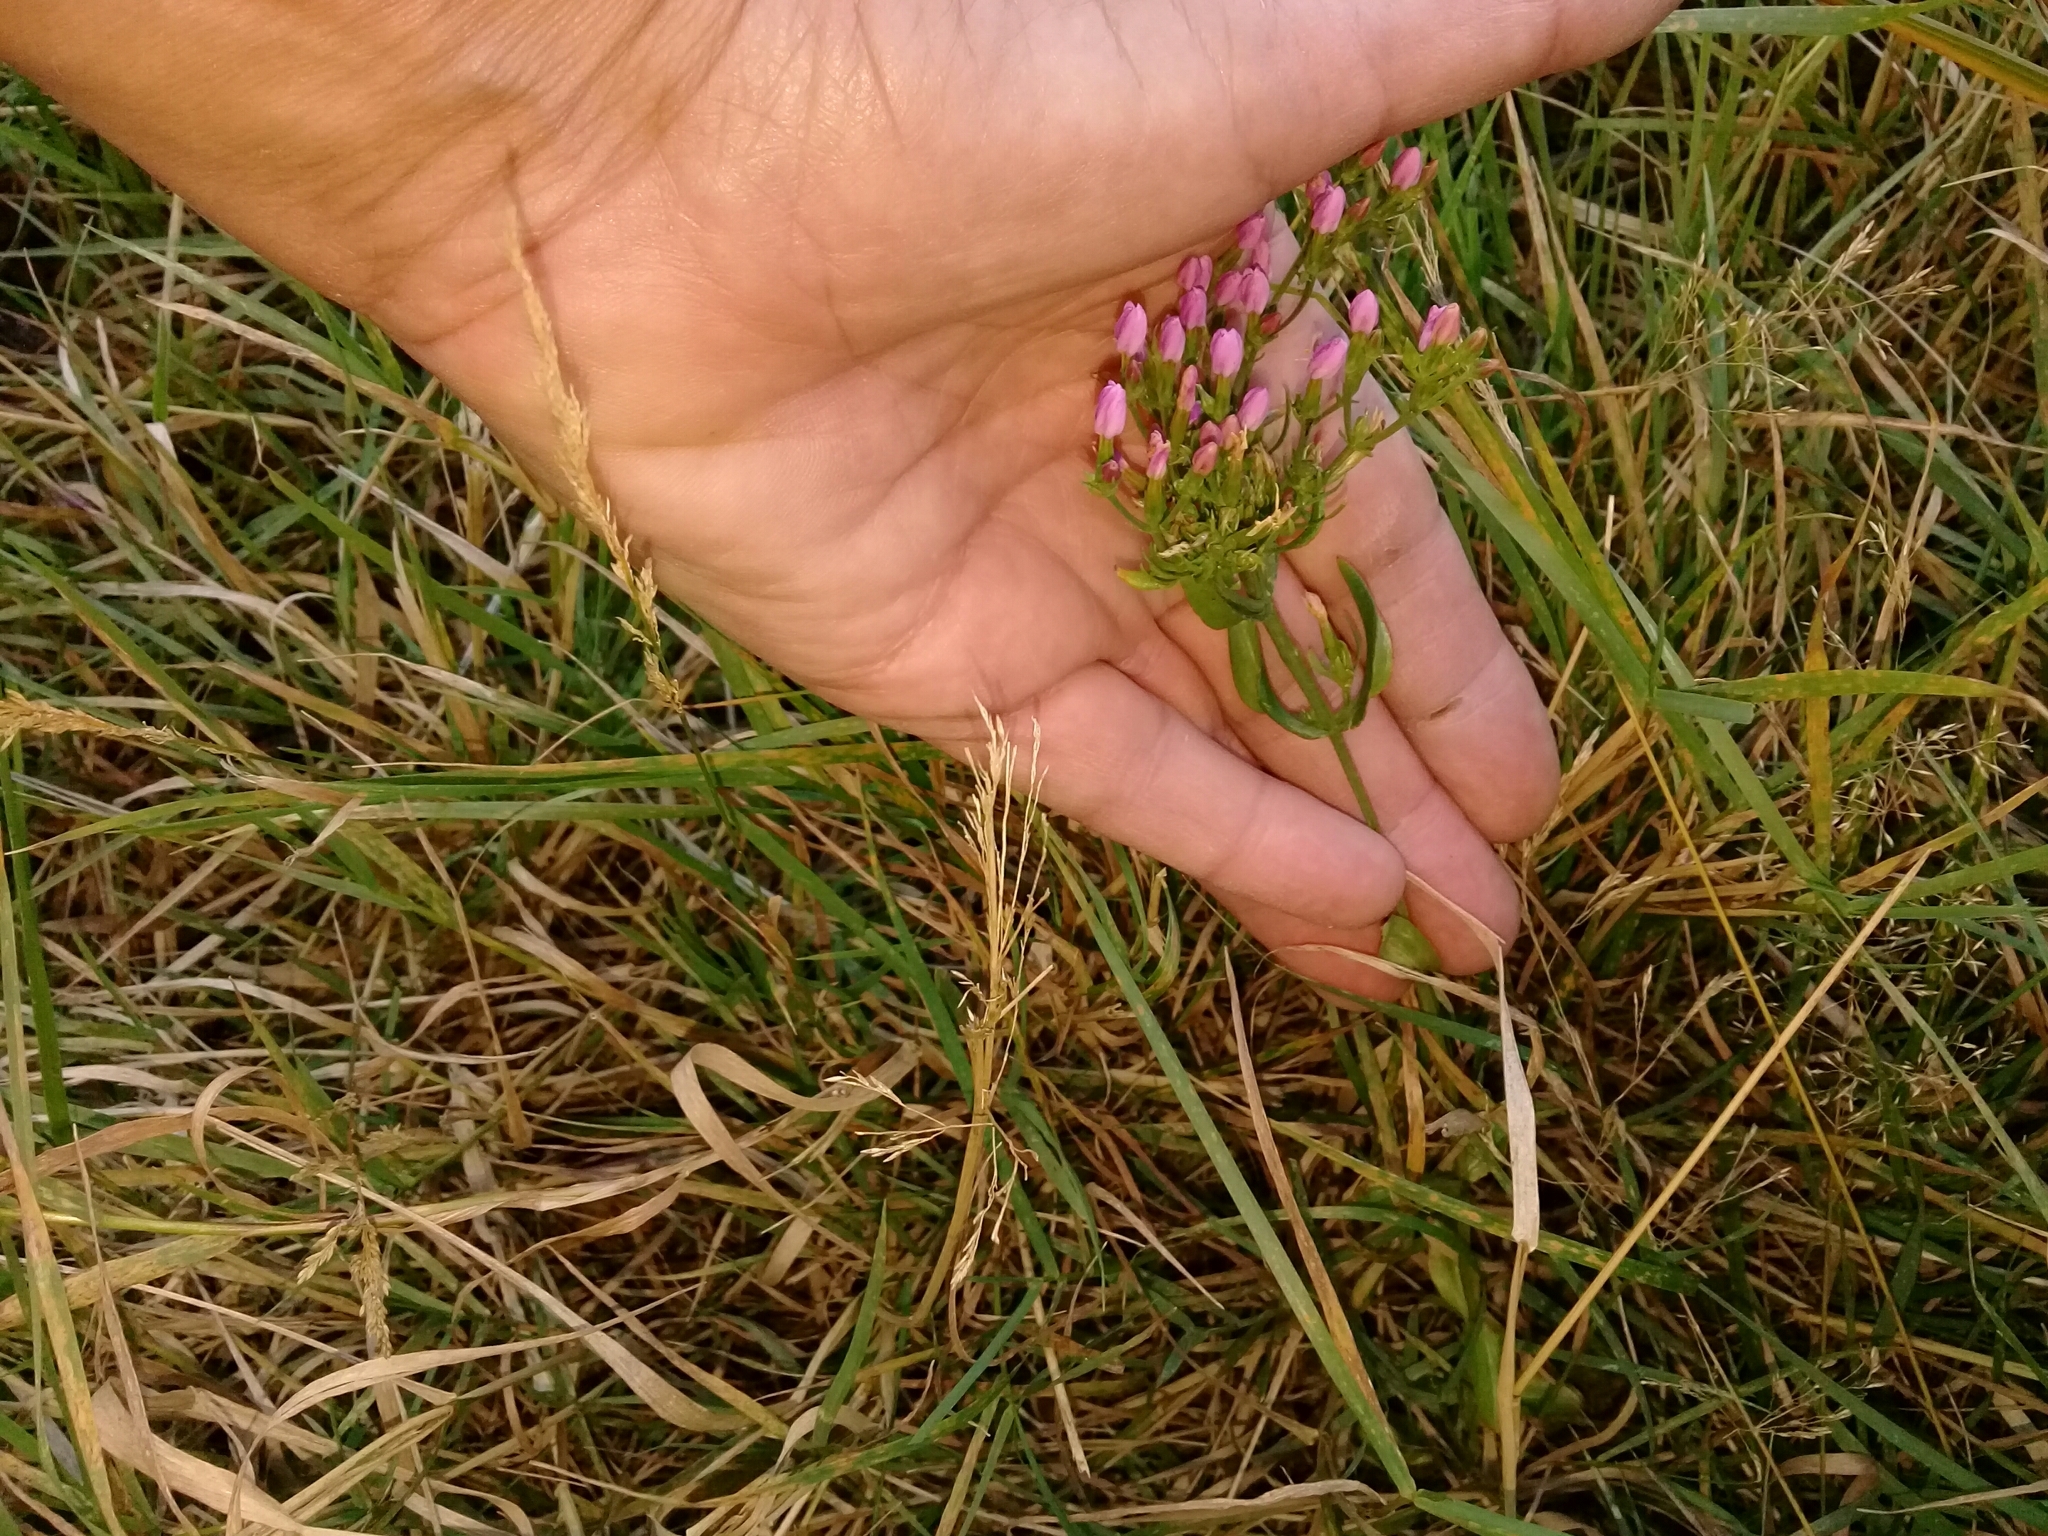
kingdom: Plantae
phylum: Tracheophyta
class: Magnoliopsida
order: Gentianales
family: Gentianaceae
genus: Centaurium
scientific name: Centaurium erythraea
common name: Common centaury
